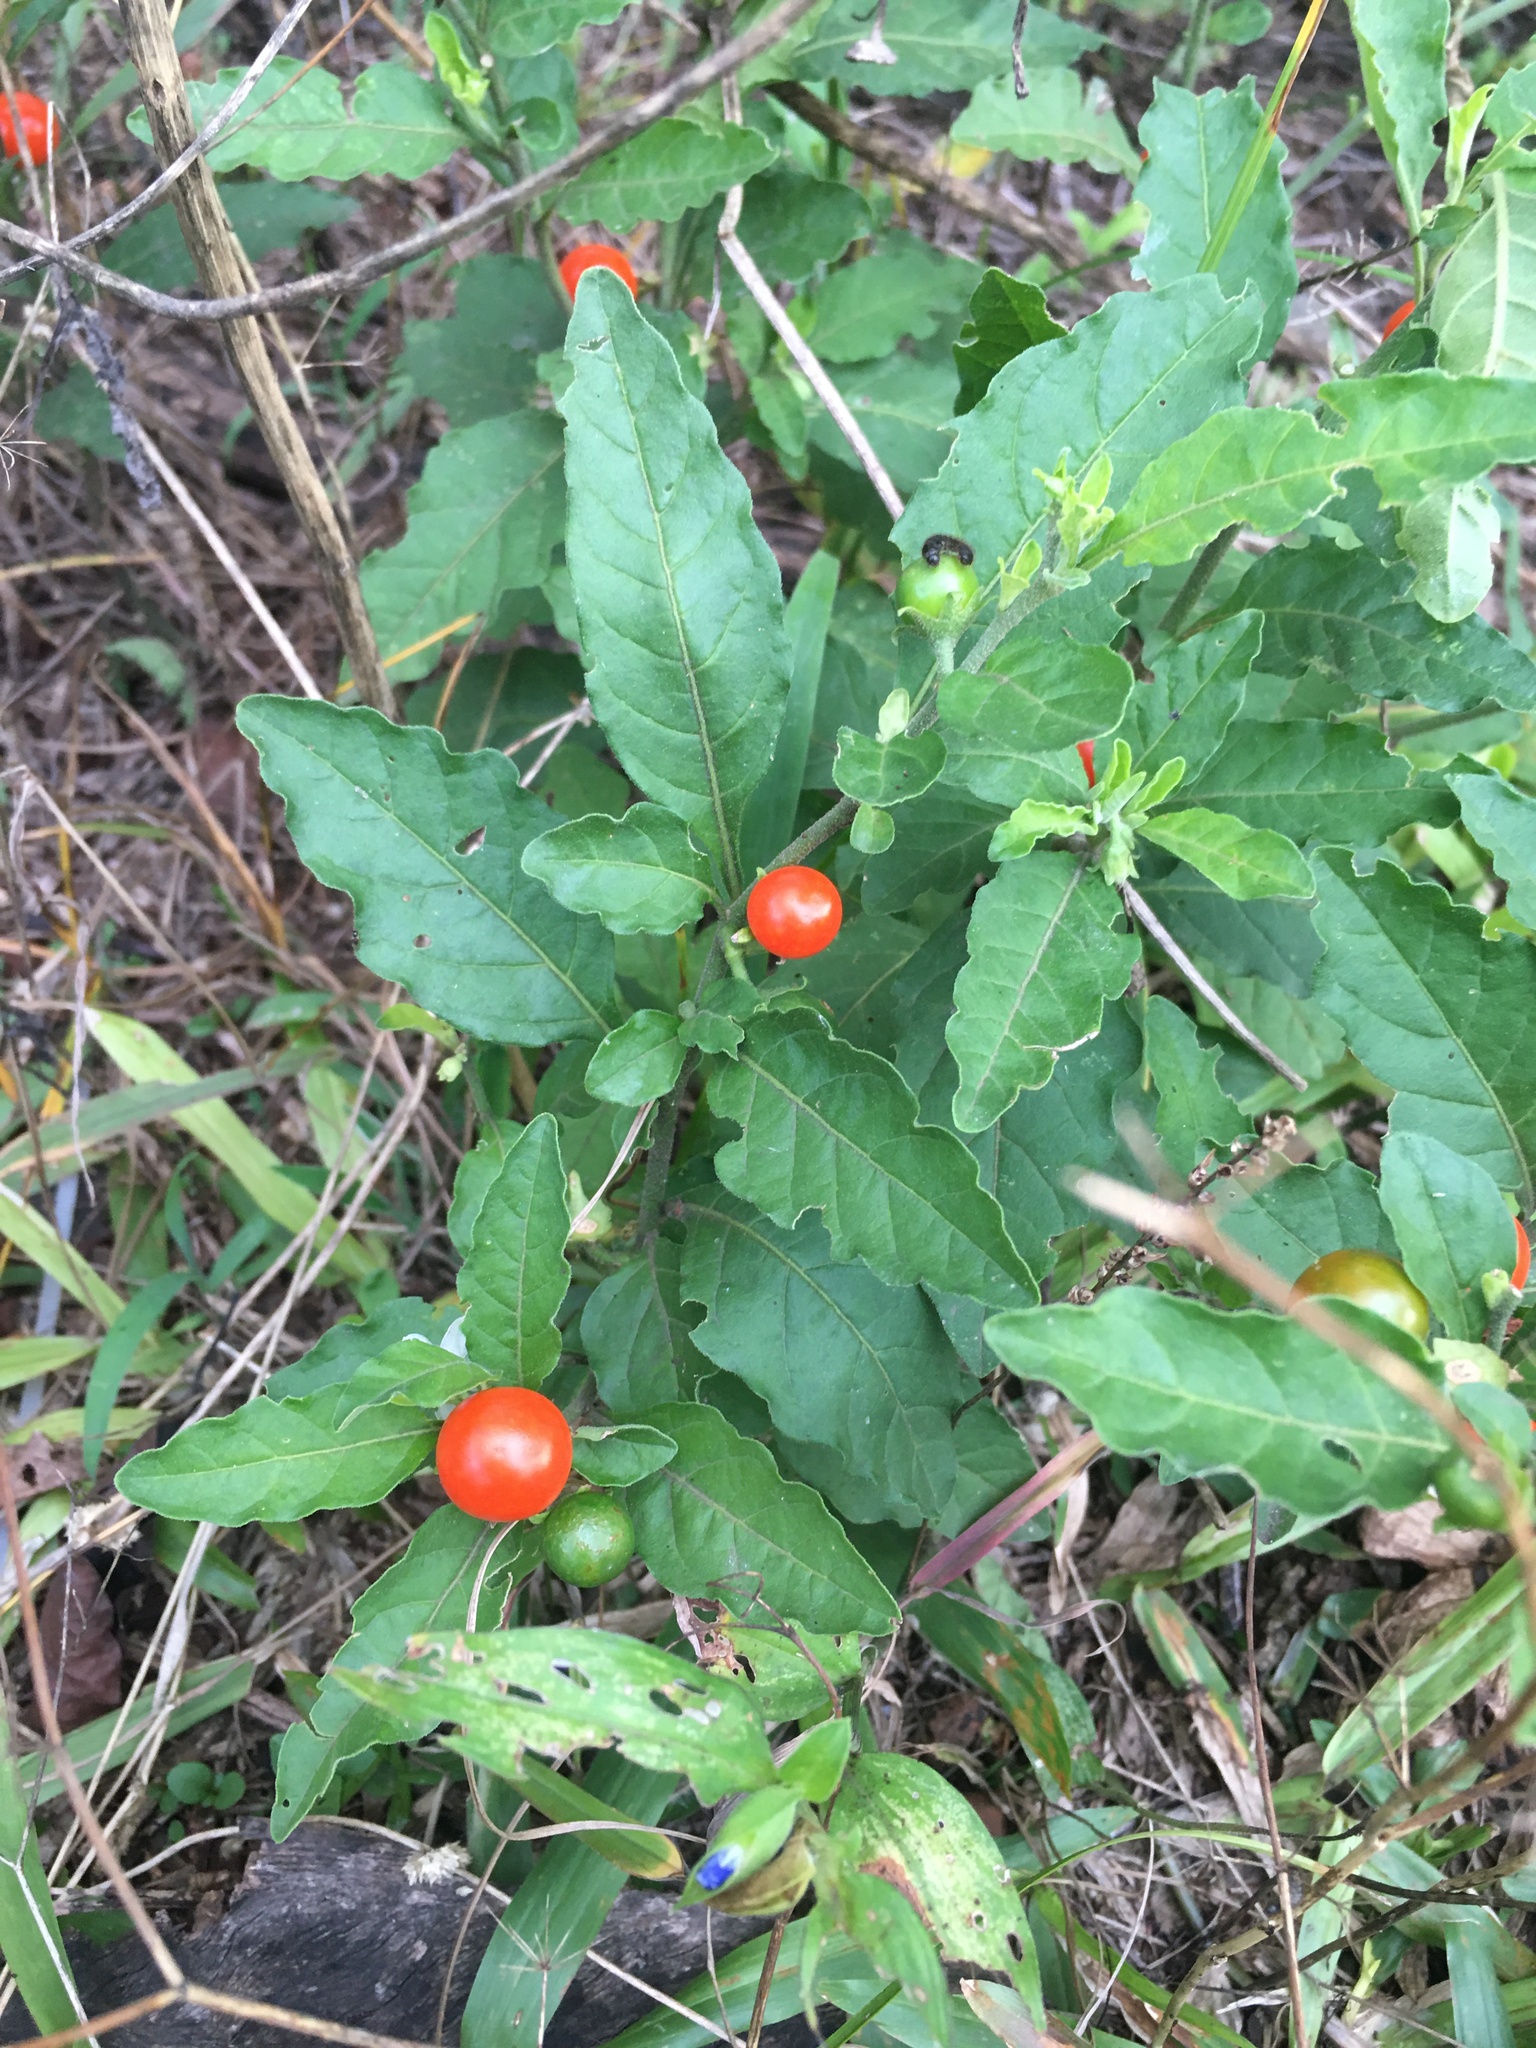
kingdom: Plantae
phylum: Tracheophyta
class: Magnoliopsida
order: Solanales
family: Solanaceae
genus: Solanum
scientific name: Solanum pseudocapsicum
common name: Jerusalem cherry
